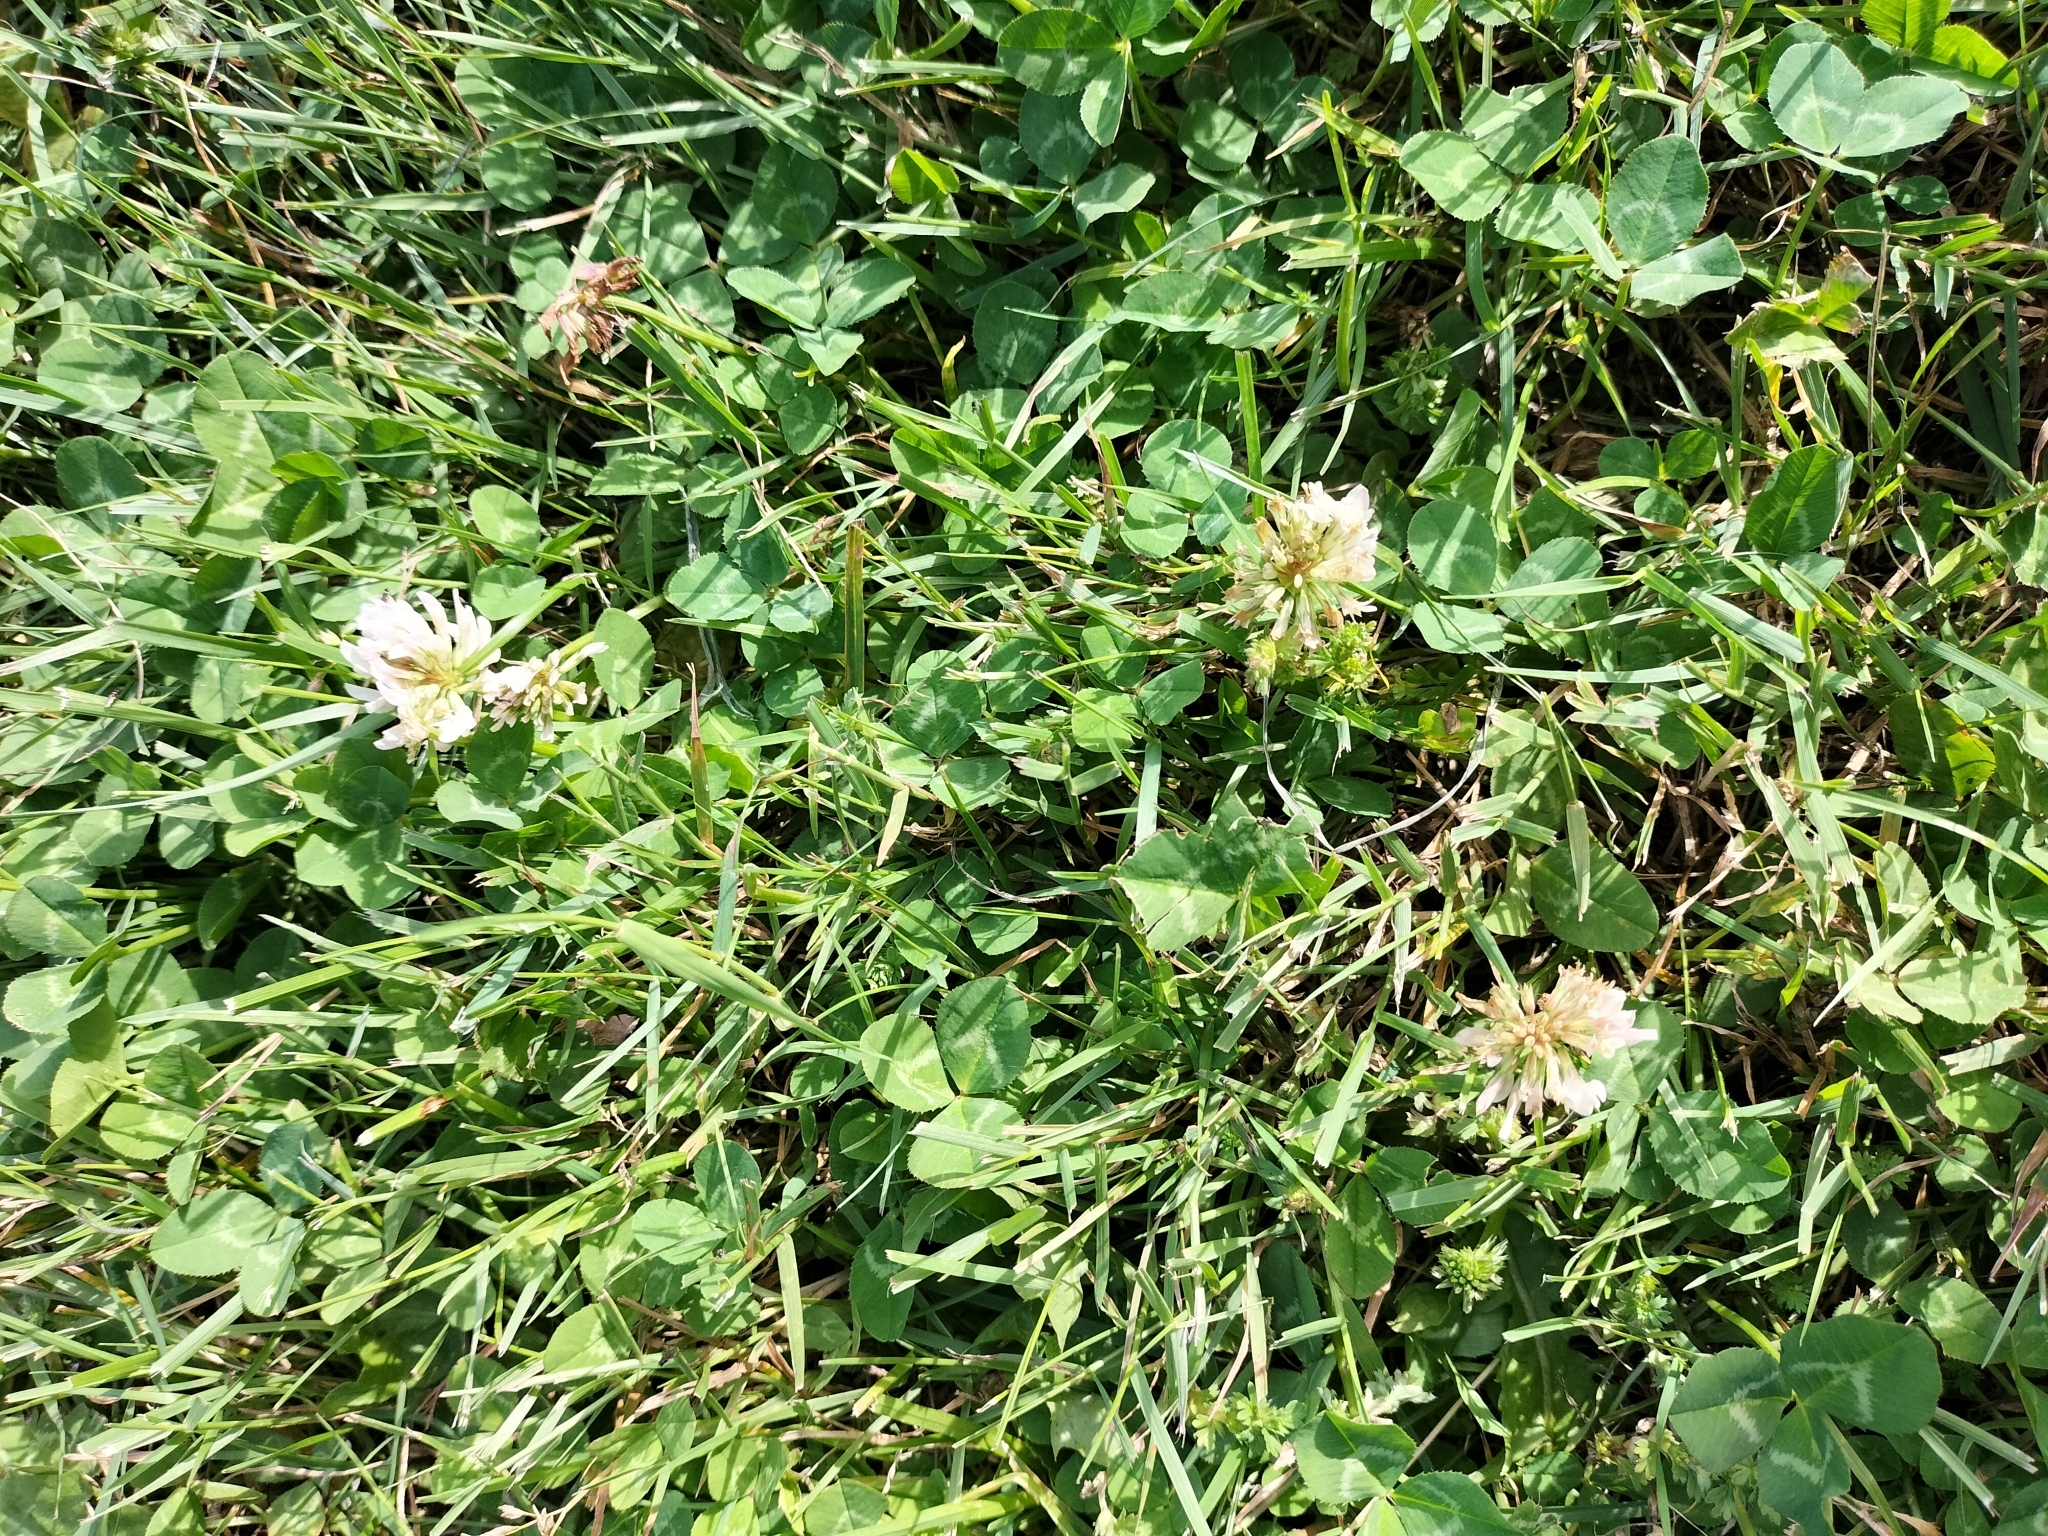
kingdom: Plantae
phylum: Tracheophyta
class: Magnoliopsida
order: Fabales
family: Fabaceae
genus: Trifolium
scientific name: Trifolium repens
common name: White clover
